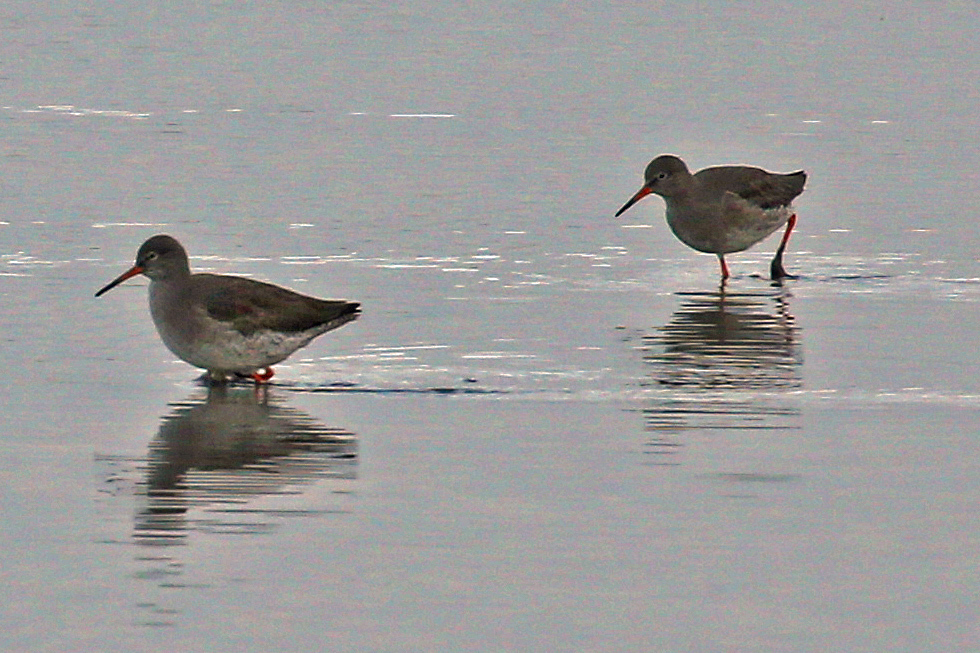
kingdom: Animalia
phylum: Chordata
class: Aves
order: Charadriiformes
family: Scolopacidae
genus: Tringa
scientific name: Tringa totanus
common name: Common redshank
